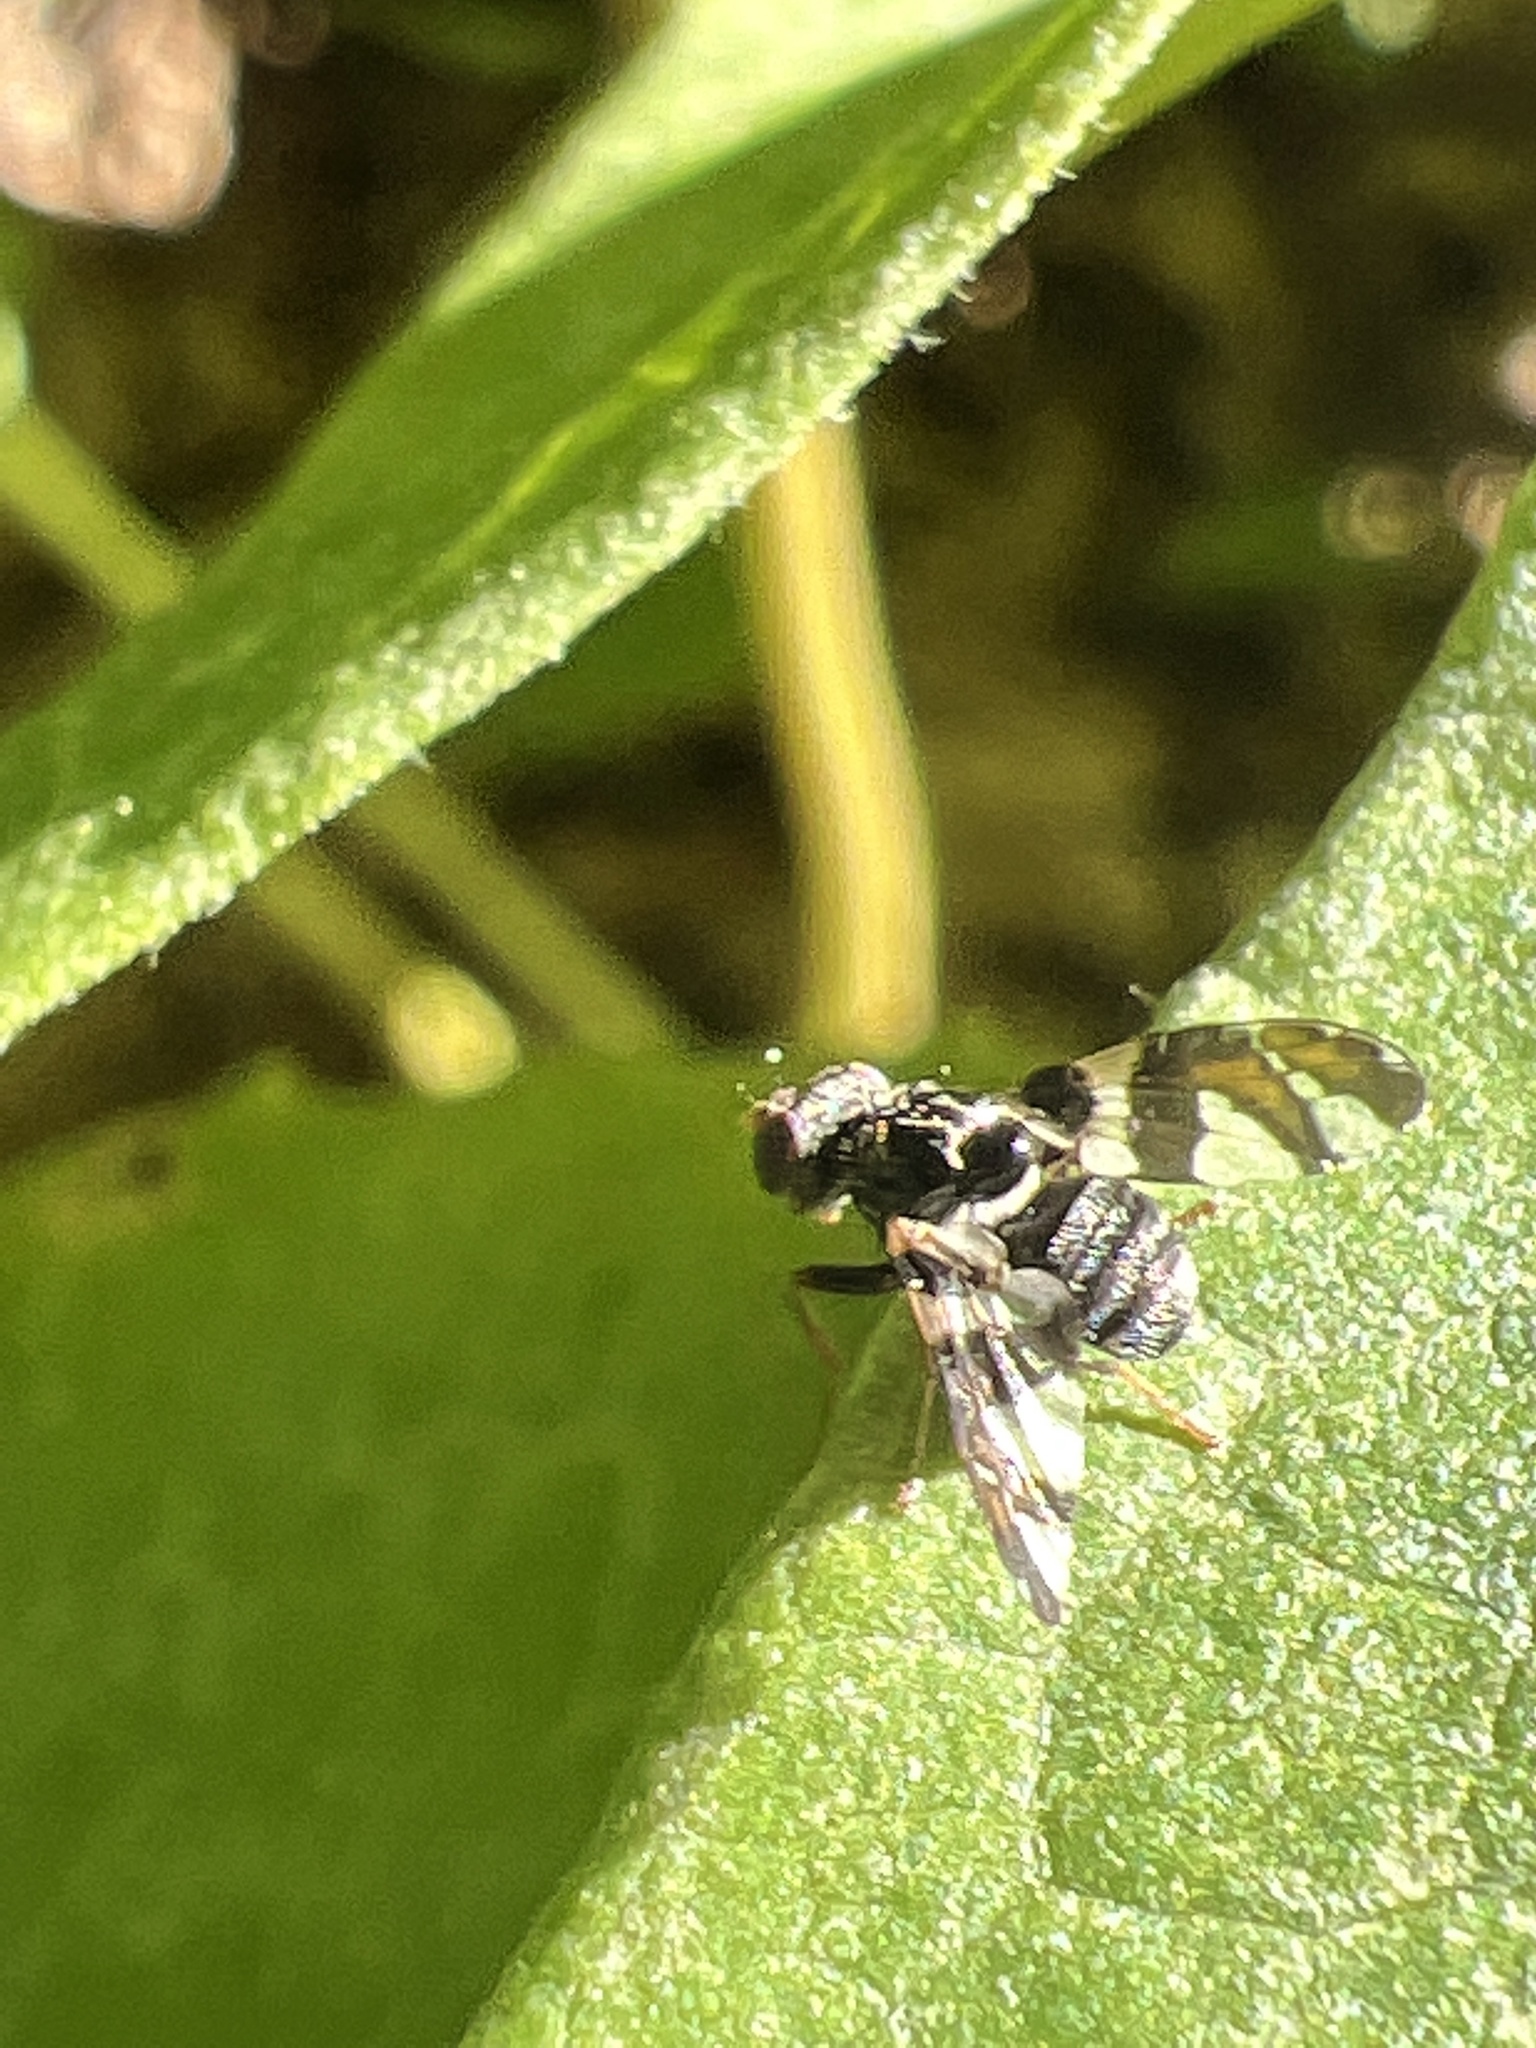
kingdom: Animalia
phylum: Arthropoda
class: Insecta
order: Diptera
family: Tephritidae
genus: Procecidochares
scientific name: Procecidochares atra
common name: Goldenrod brussels sprout gall fly
